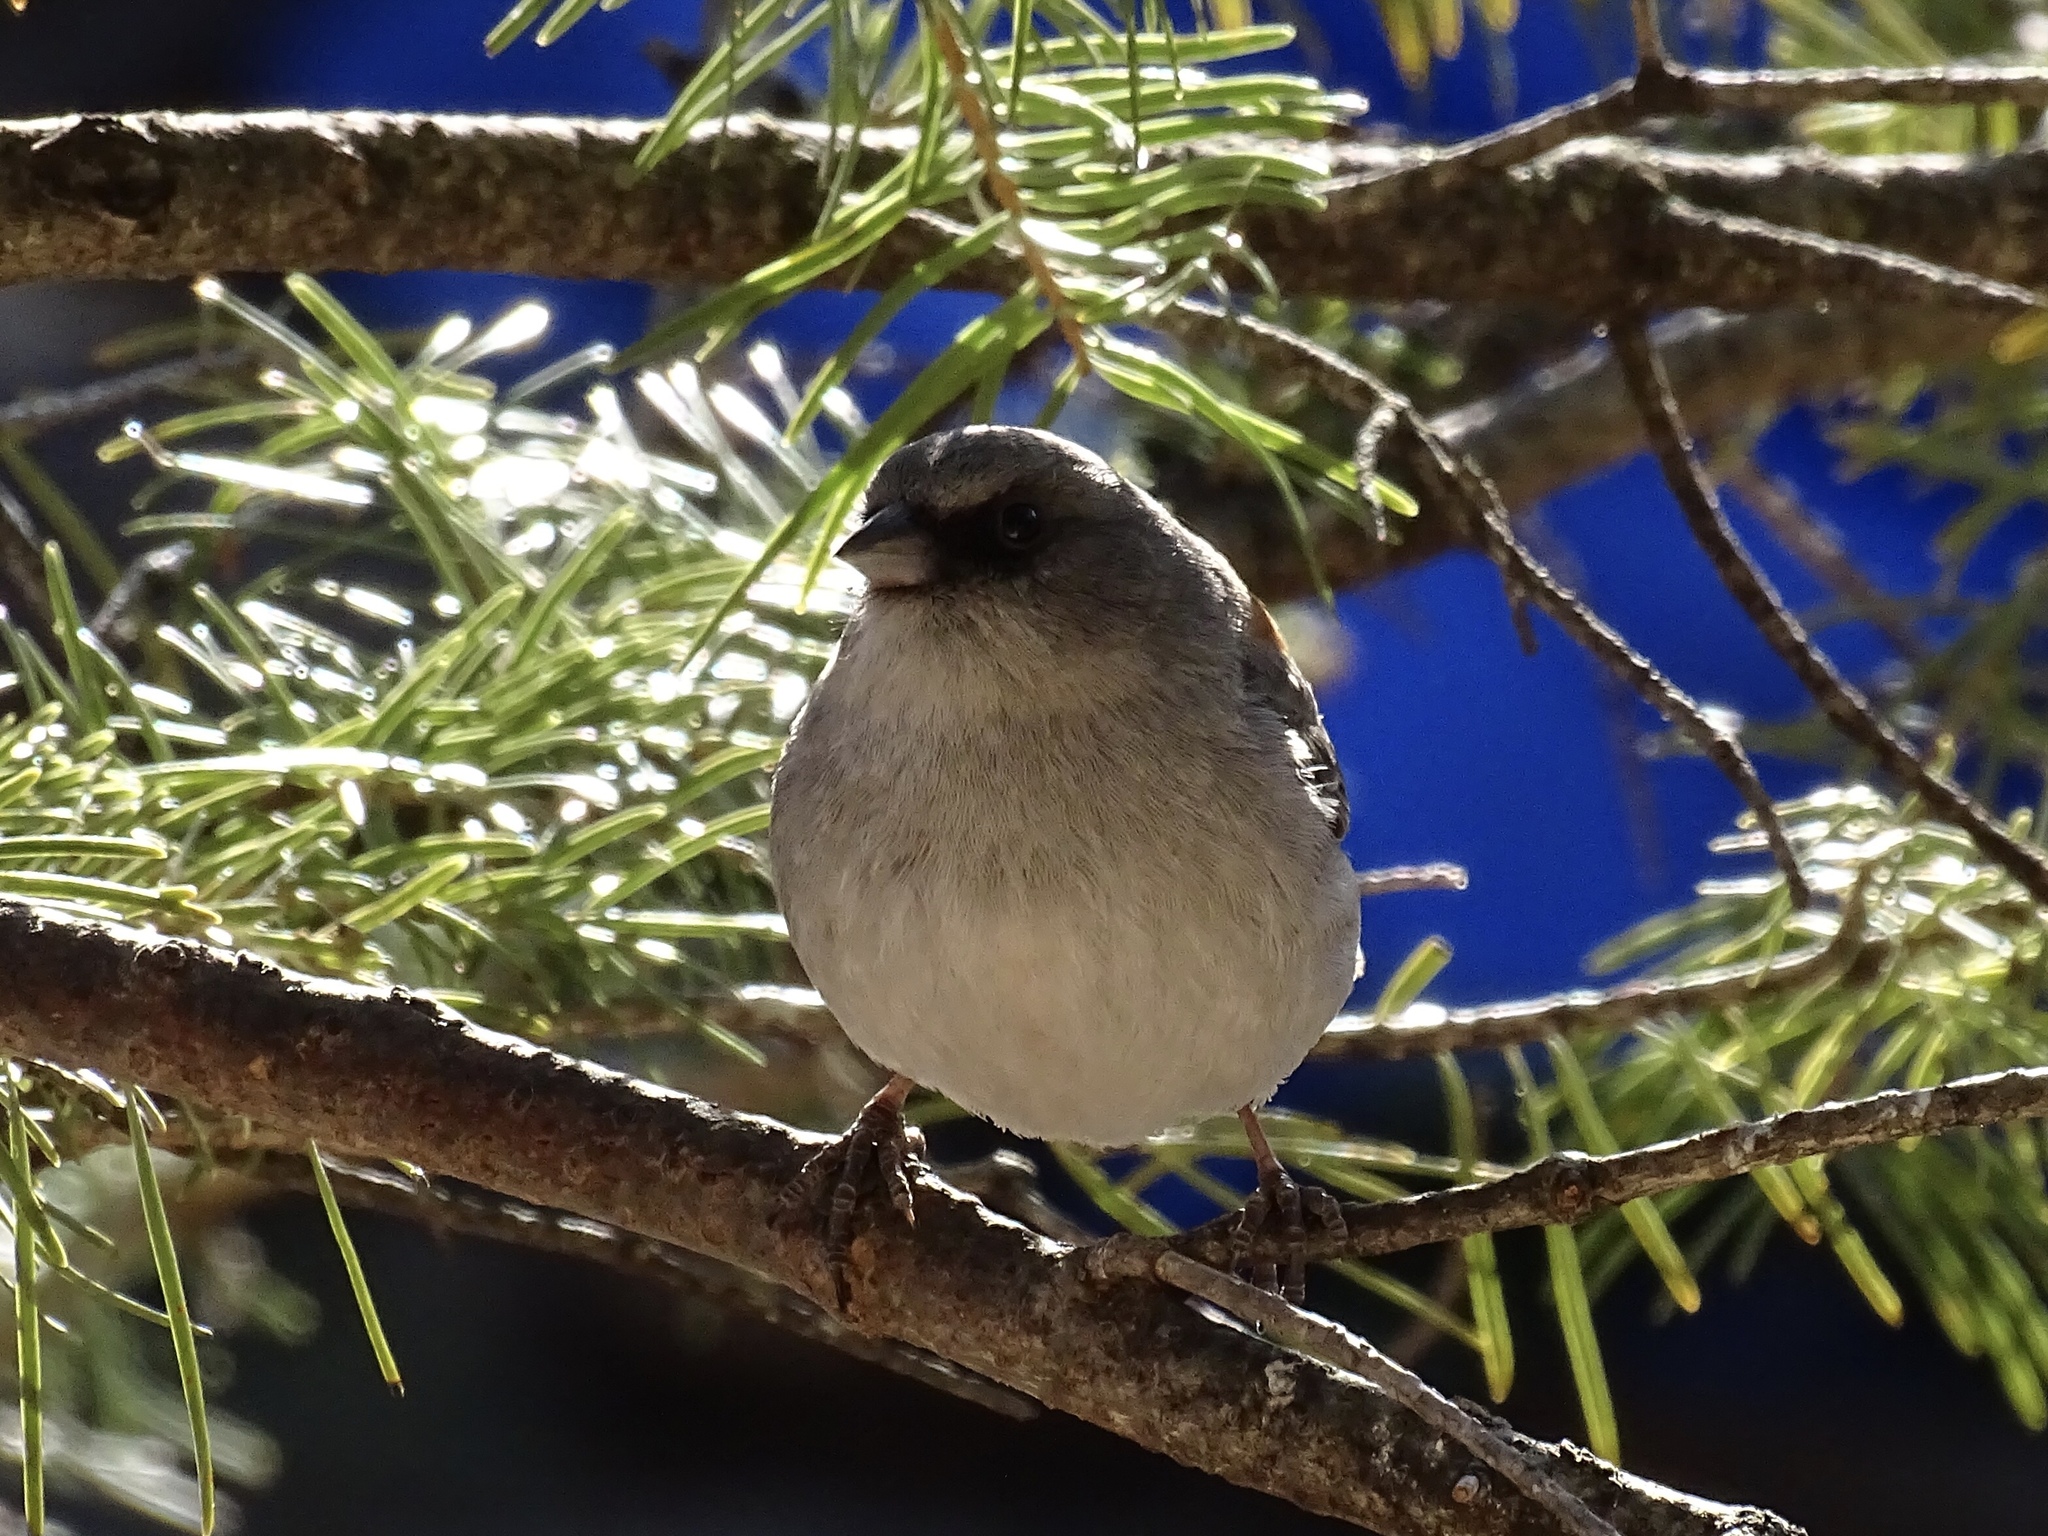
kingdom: Animalia
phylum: Chordata
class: Aves
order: Passeriformes
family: Passerellidae
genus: Junco
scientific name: Junco hyemalis
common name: Dark-eyed junco
